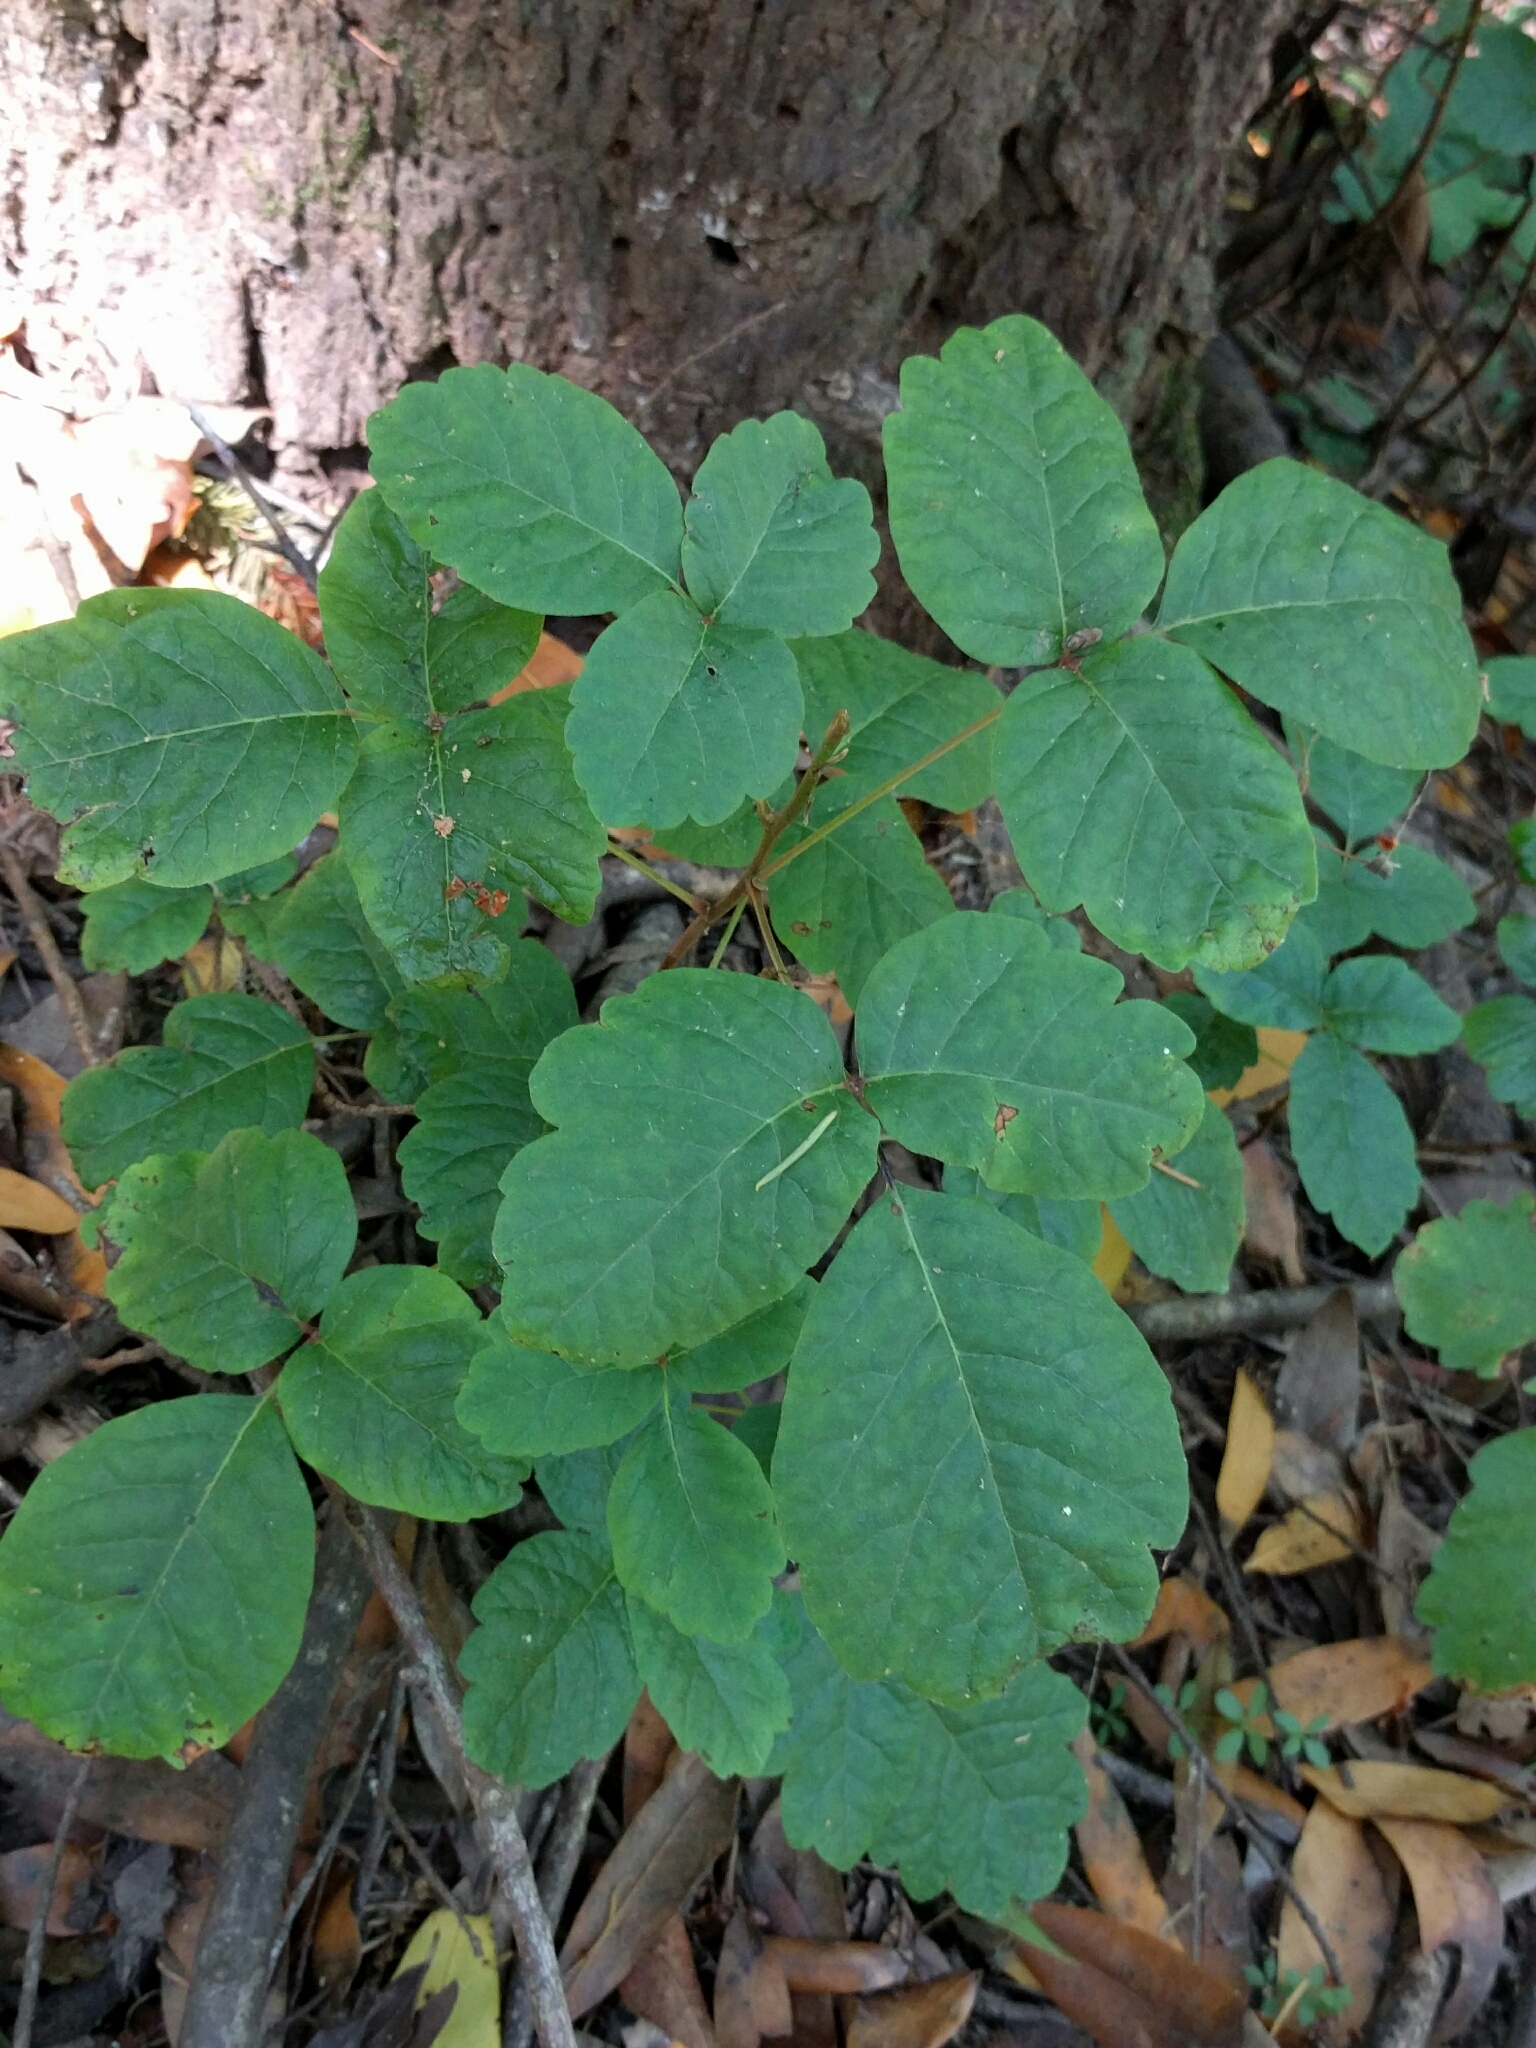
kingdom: Plantae
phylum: Tracheophyta
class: Magnoliopsida
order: Sapindales
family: Anacardiaceae
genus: Toxicodendron
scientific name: Toxicodendron diversilobum
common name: Pacific poison-oak
